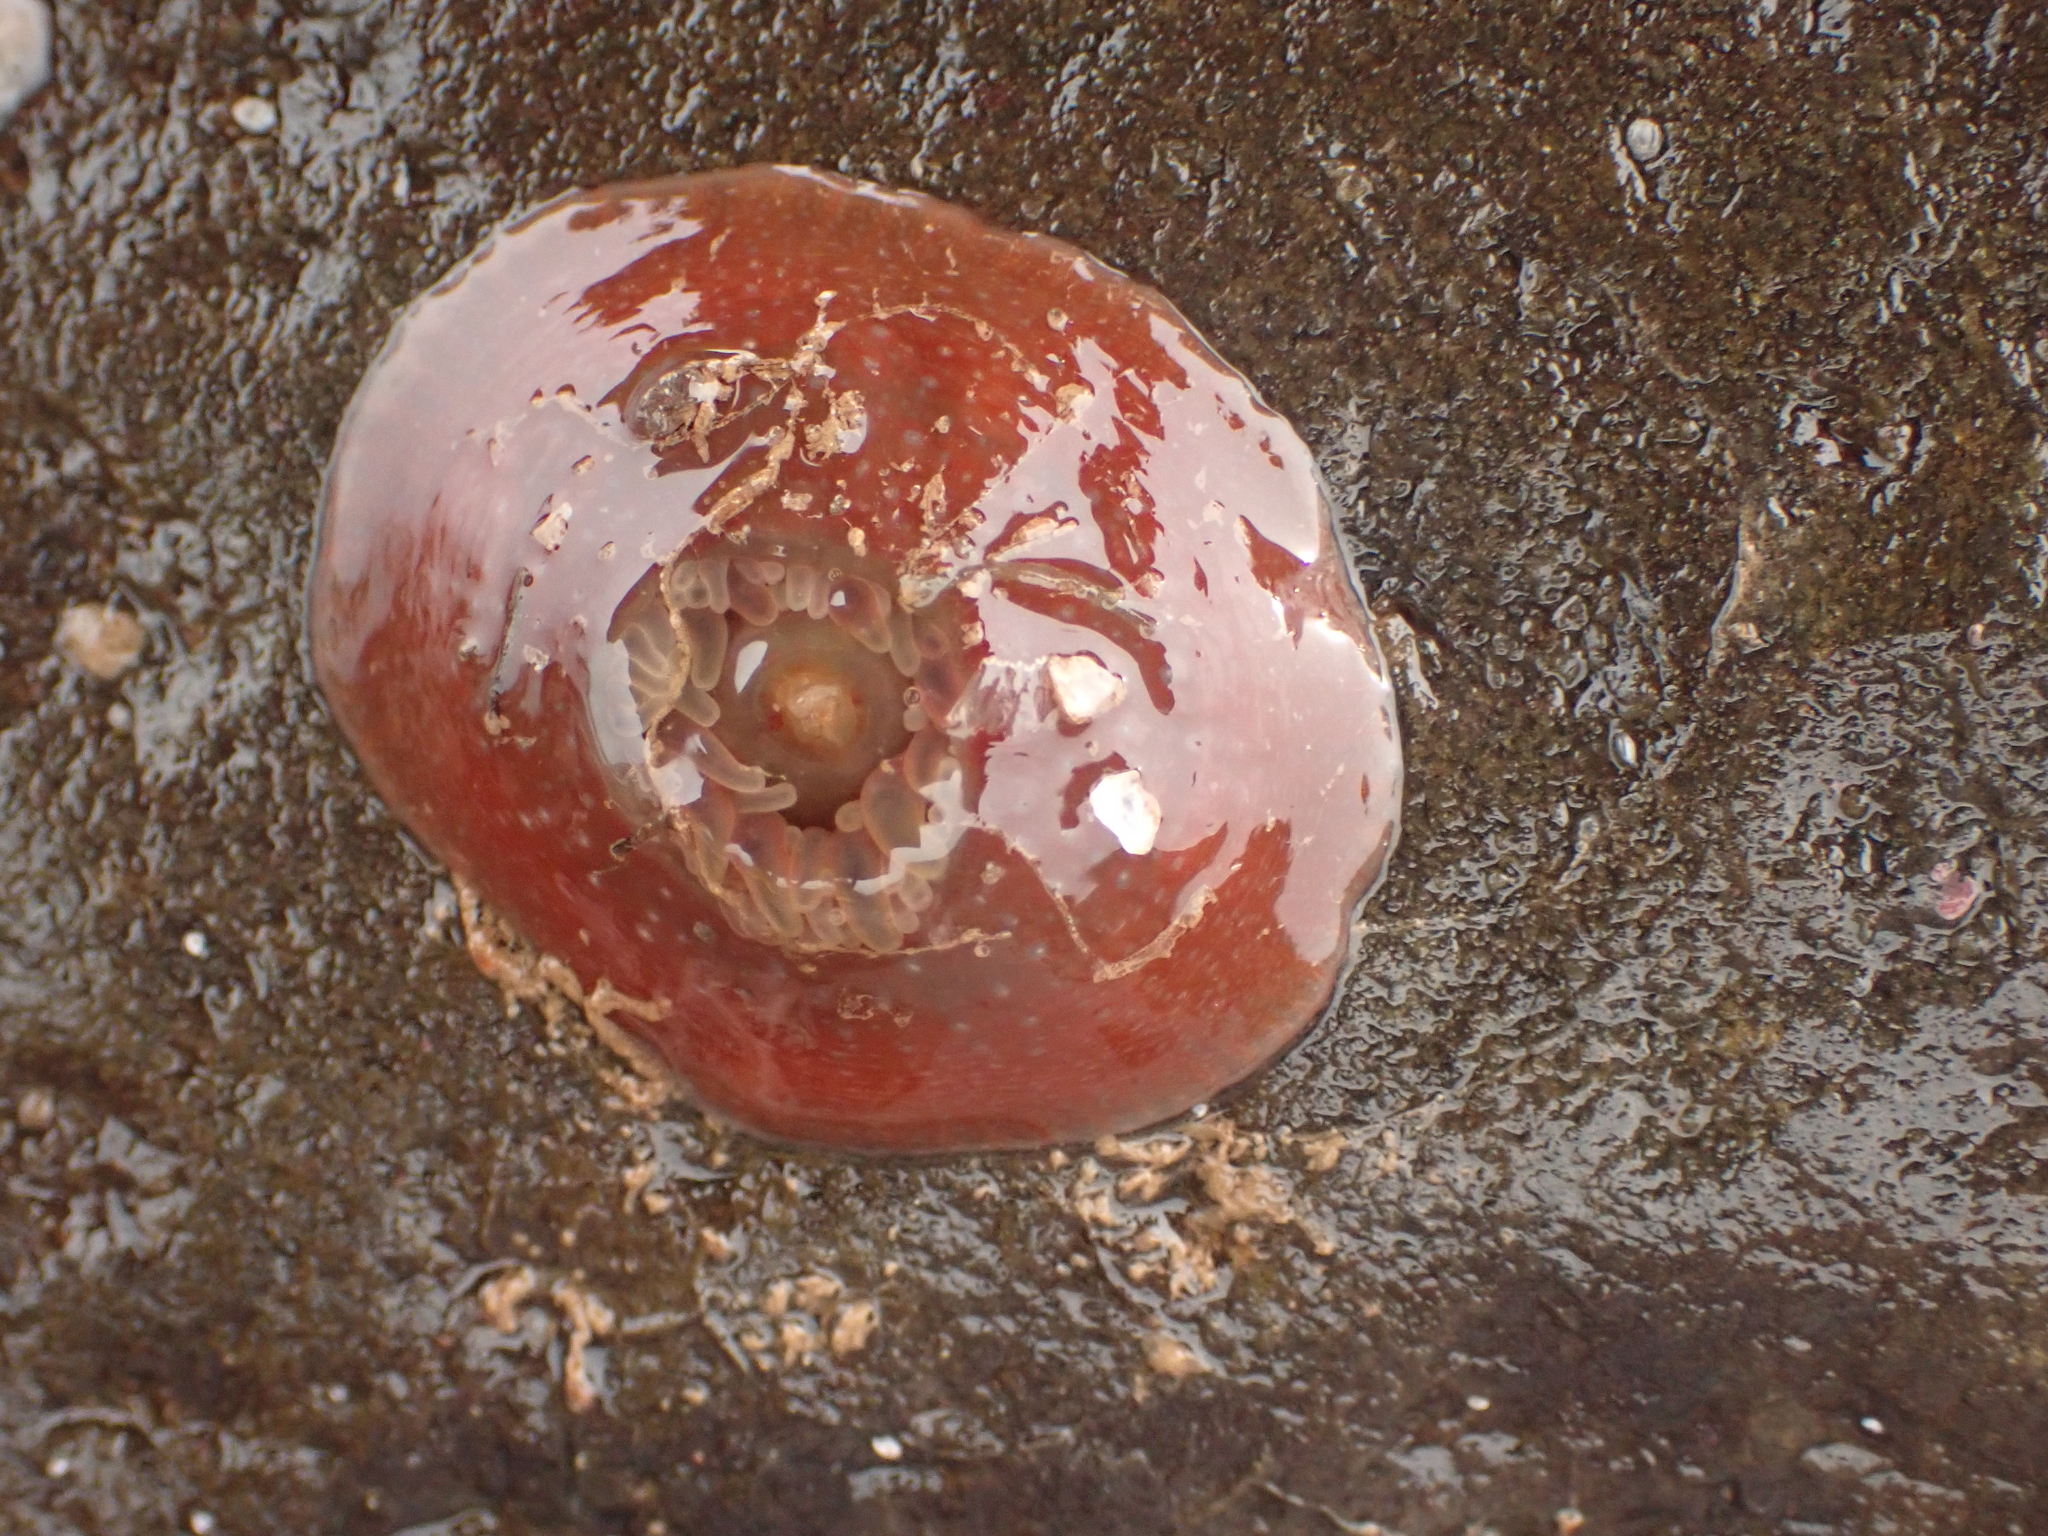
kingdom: Animalia
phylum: Cnidaria
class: Anthozoa
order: Actiniaria
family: Actiniidae
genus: Urticina
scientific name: Urticina crassicornis
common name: Mottled anemone
